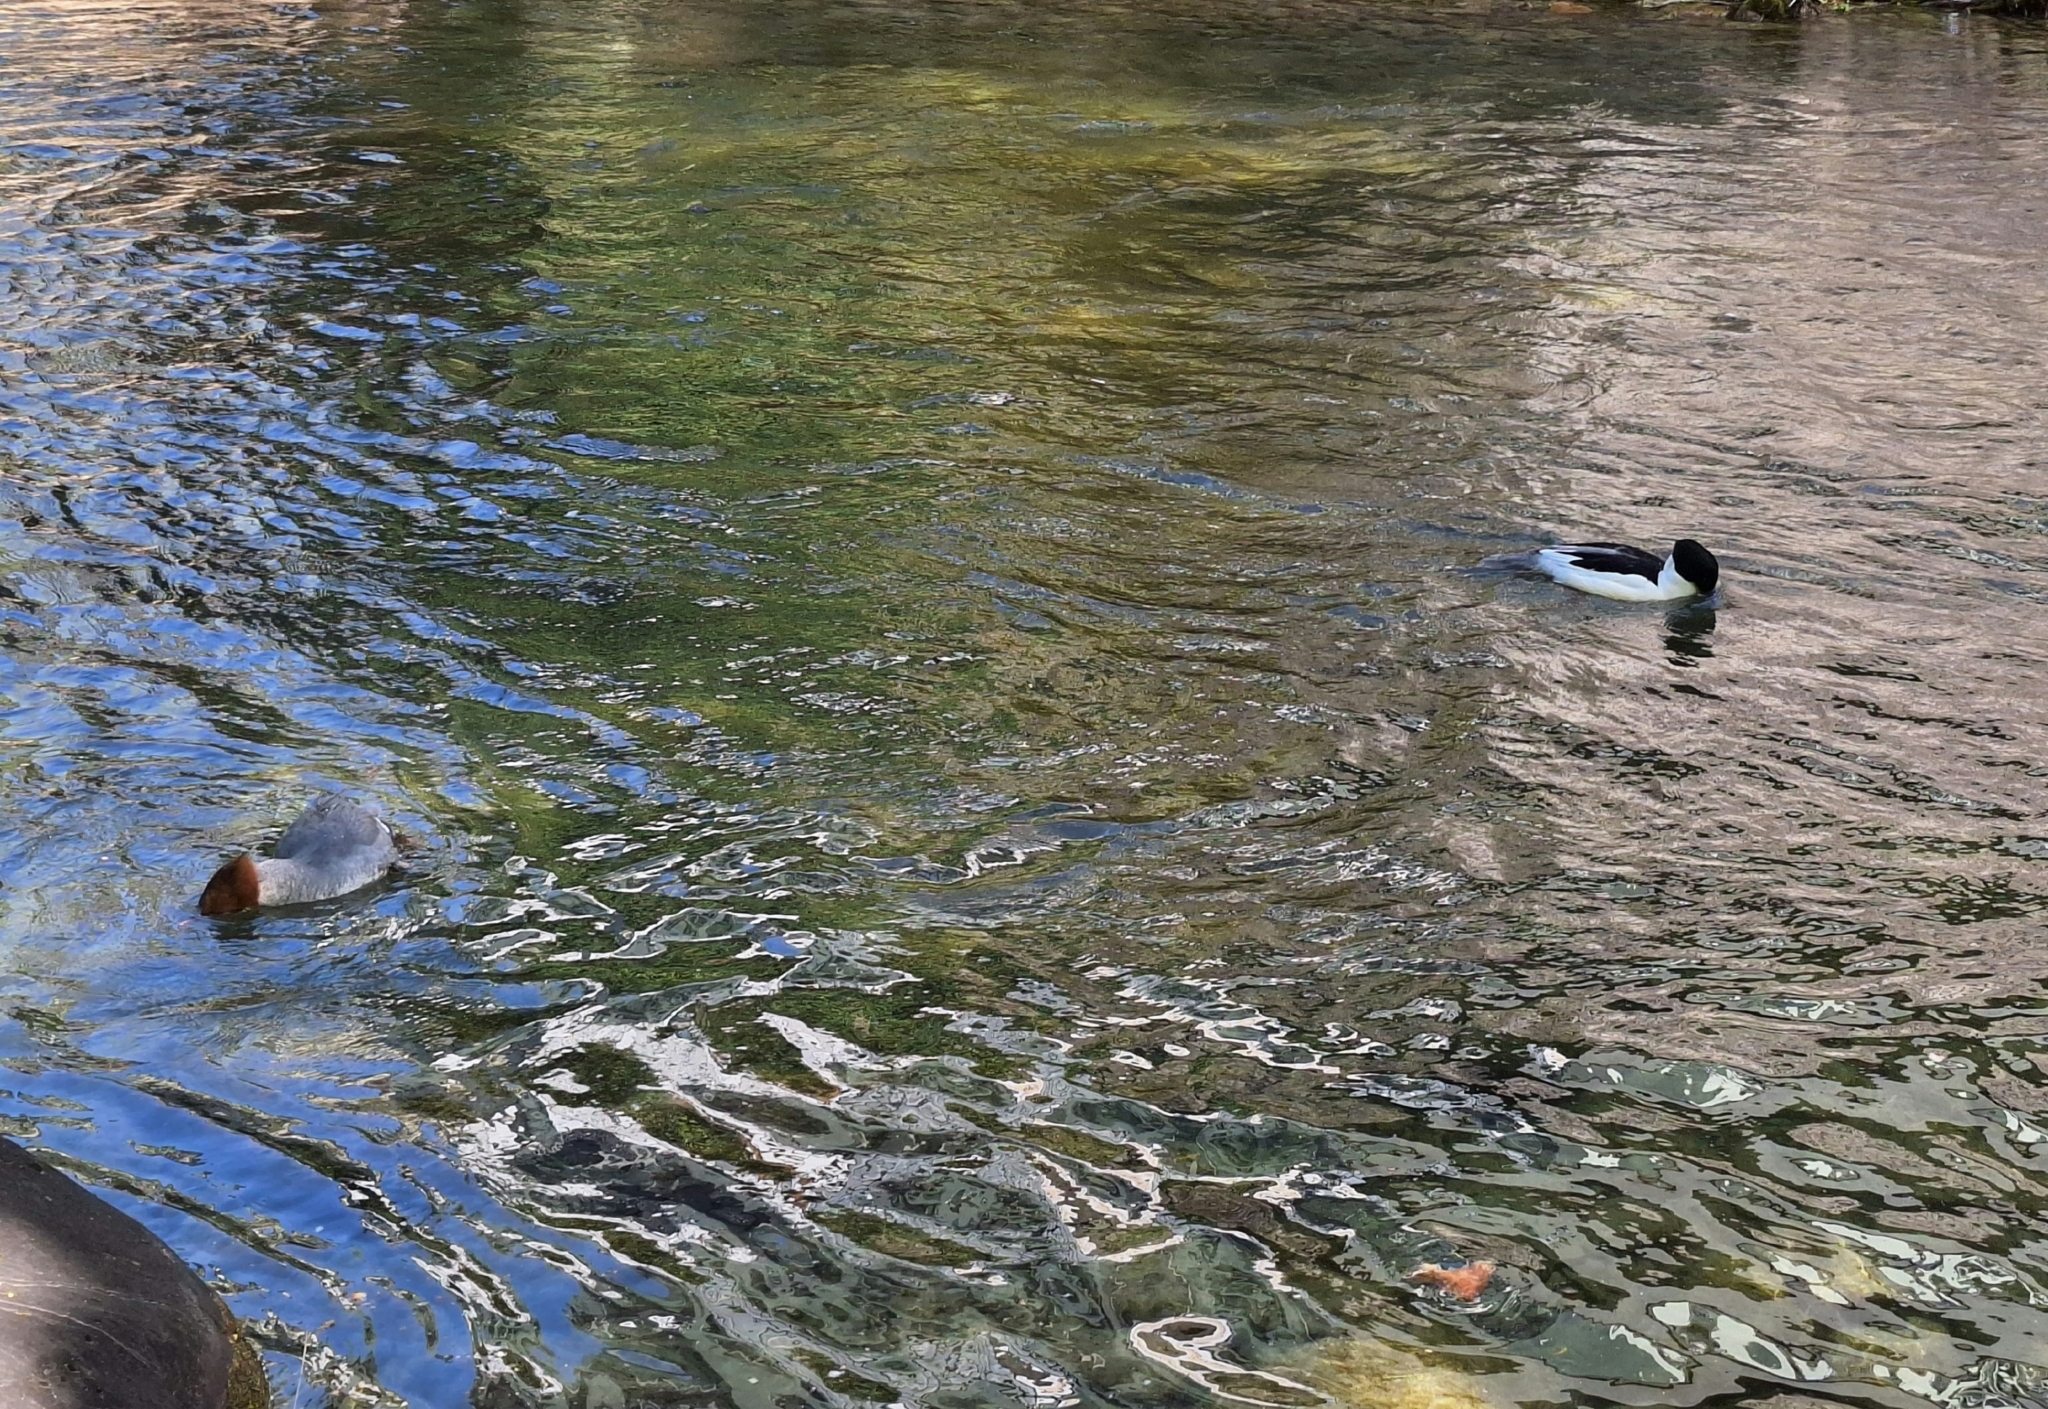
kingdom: Animalia
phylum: Chordata
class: Aves
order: Anseriformes
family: Anatidae
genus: Mergus
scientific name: Mergus merganser
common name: Common merganser
